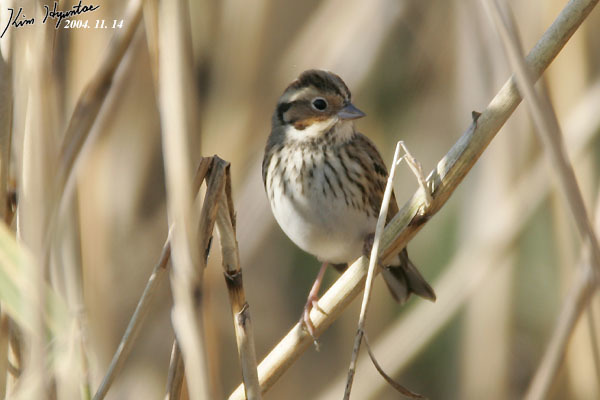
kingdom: Animalia
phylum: Chordata
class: Aves
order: Passeriformes
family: Emberizidae
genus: Emberiza
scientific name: Emberiza pusilla
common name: Little bunting
